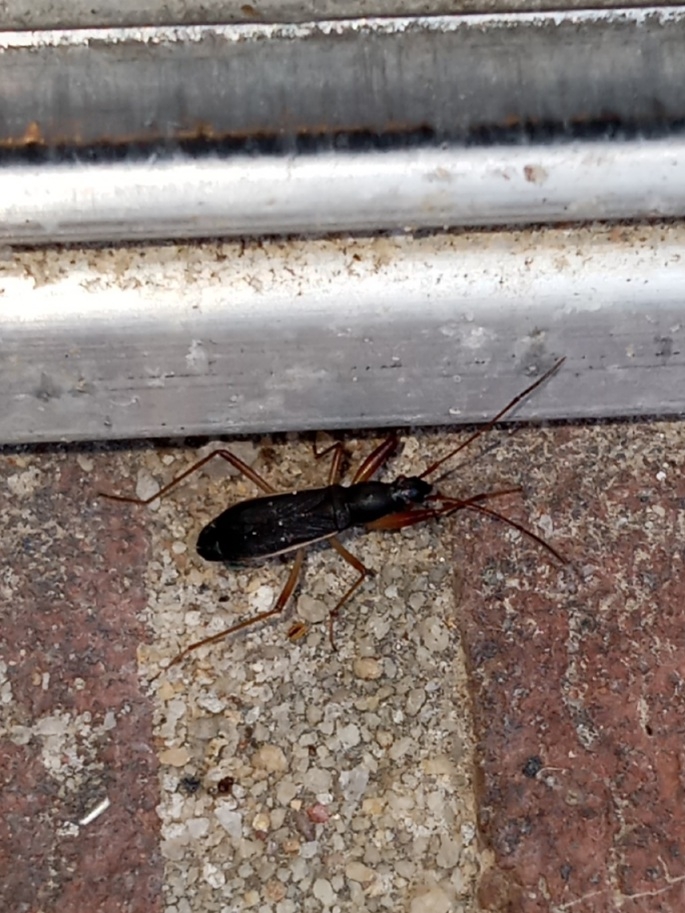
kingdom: Animalia
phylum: Arthropoda
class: Insecta
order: Hemiptera
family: Rhyparochromidae
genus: Cnemodus
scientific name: Cnemodus mavortius
